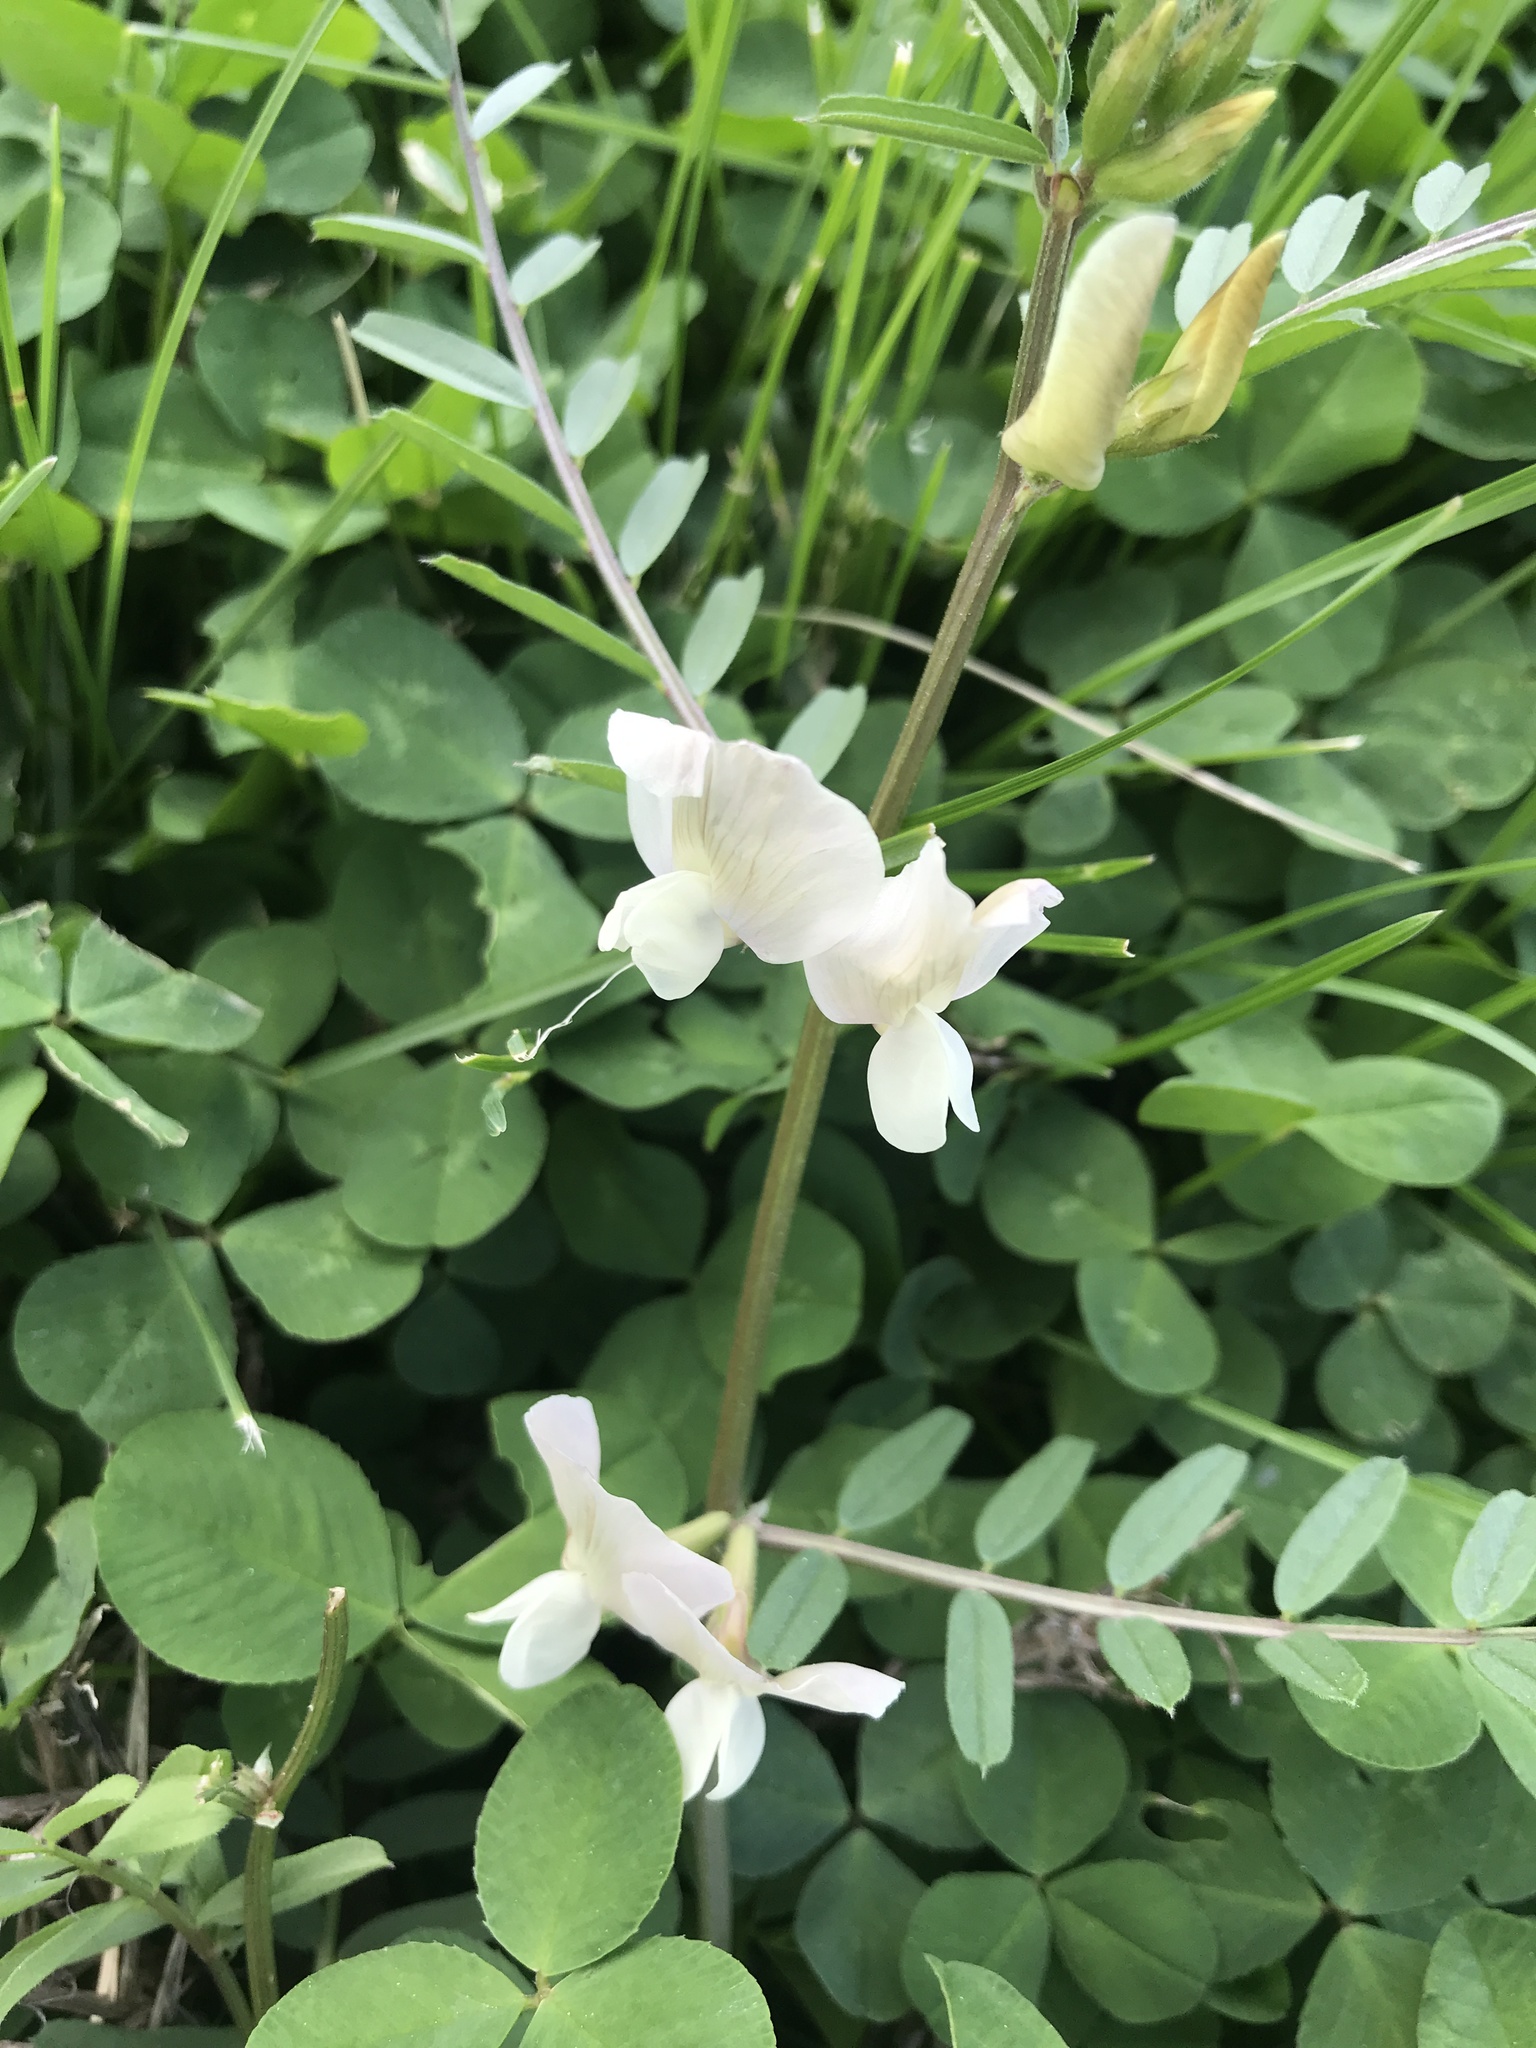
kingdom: Plantae
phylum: Tracheophyta
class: Magnoliopsida
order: Fabales
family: Fabaceae
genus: Vicia
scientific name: Vicia grandiflora
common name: Large yellow vetch
